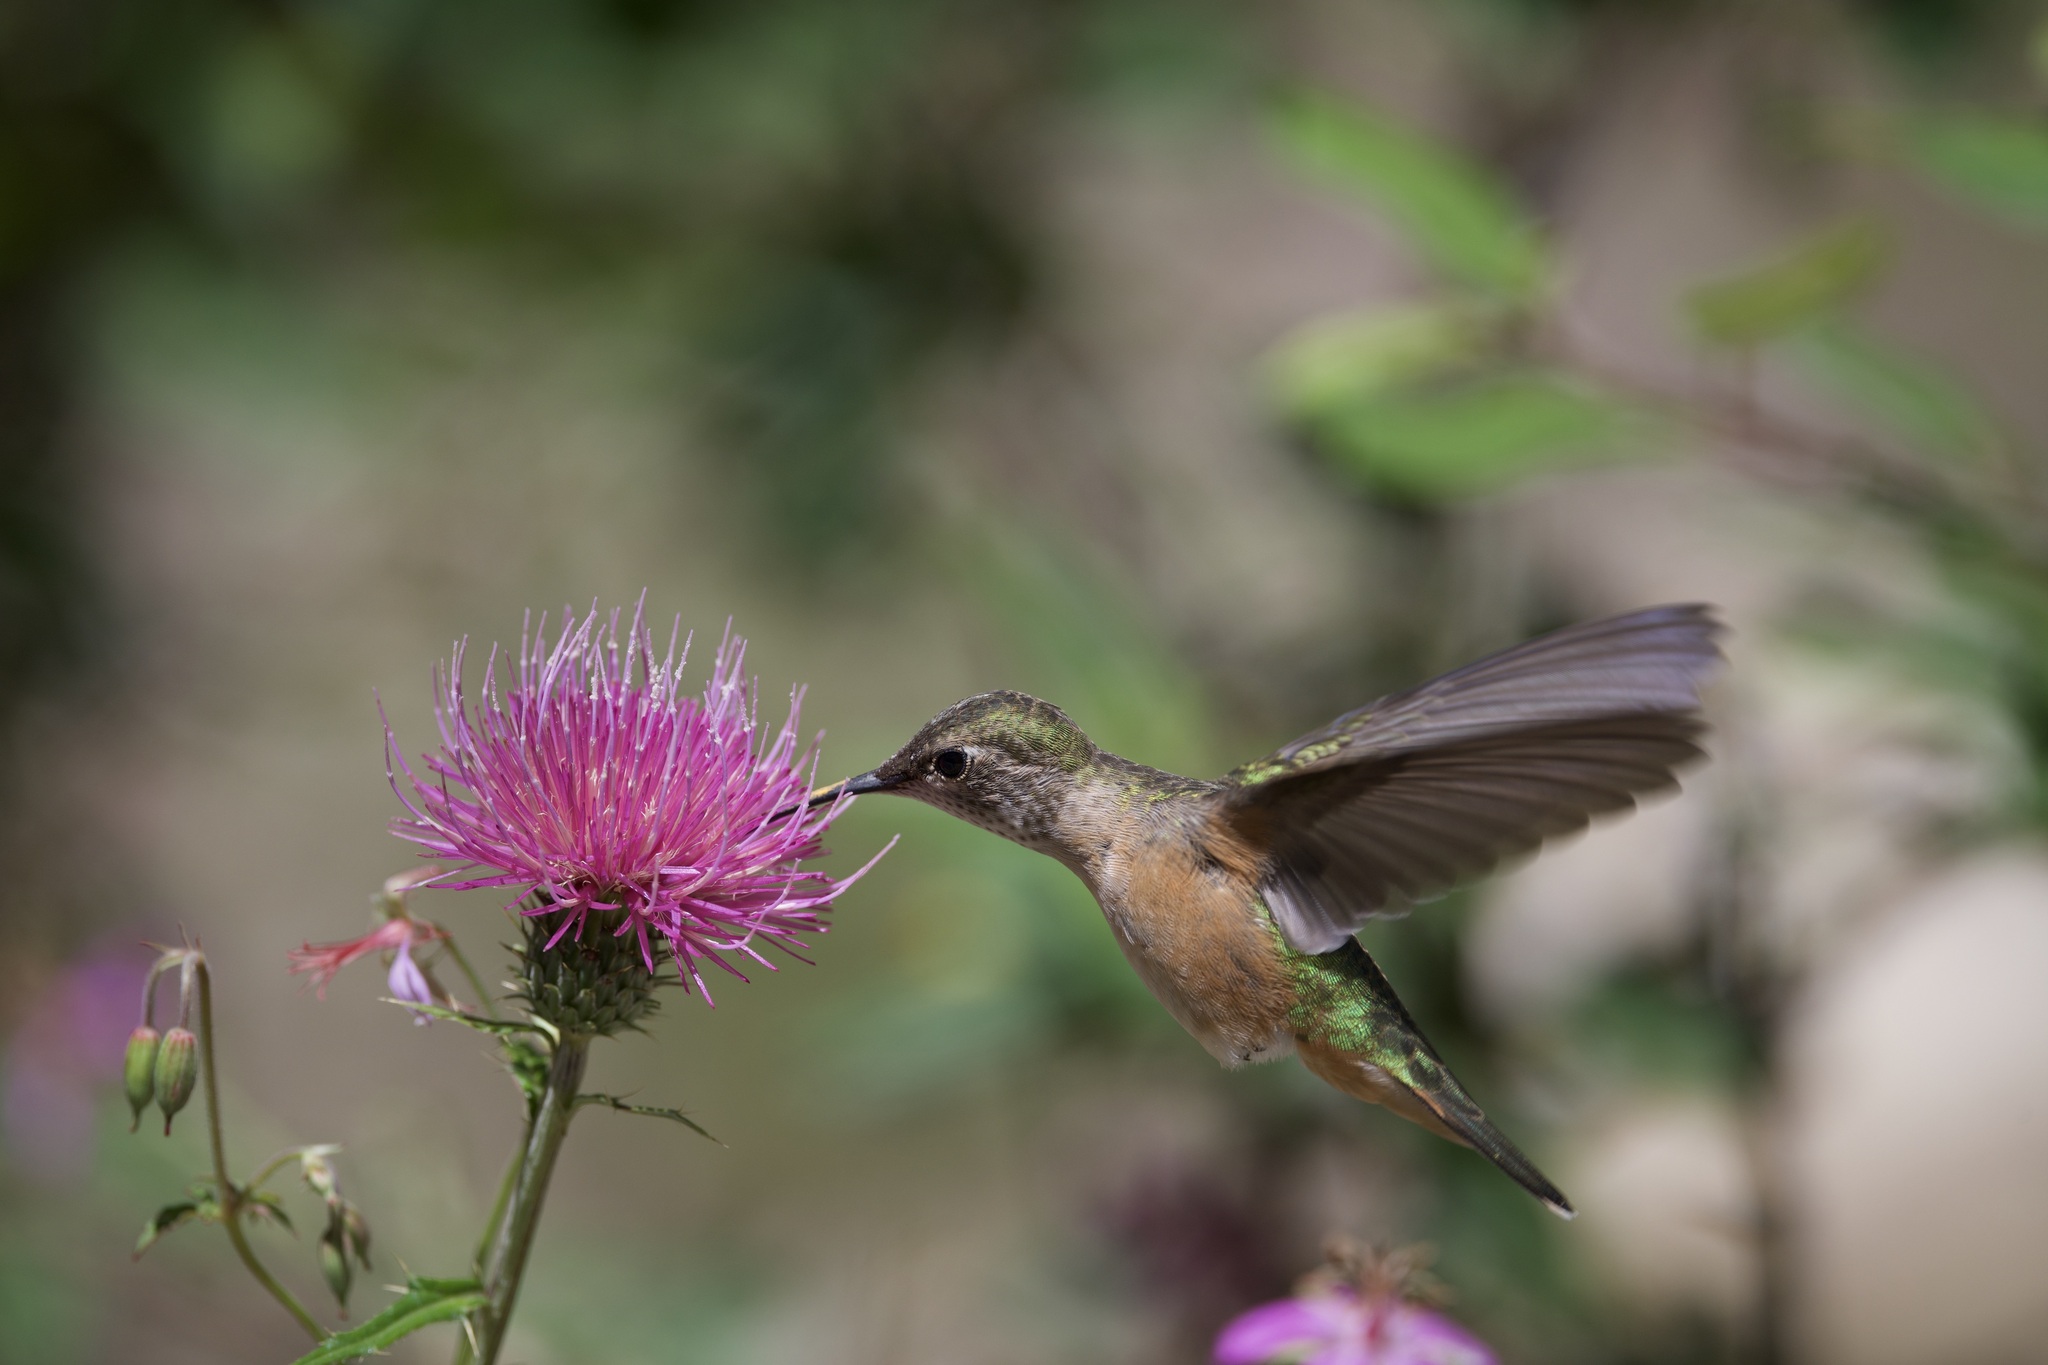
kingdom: Animalia
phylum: Chordata
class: Aves
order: Apodiformes
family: Trochilidae
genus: Selasphorus
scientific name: Selasphorus platycercus
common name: Broad-tailed hummingbird
